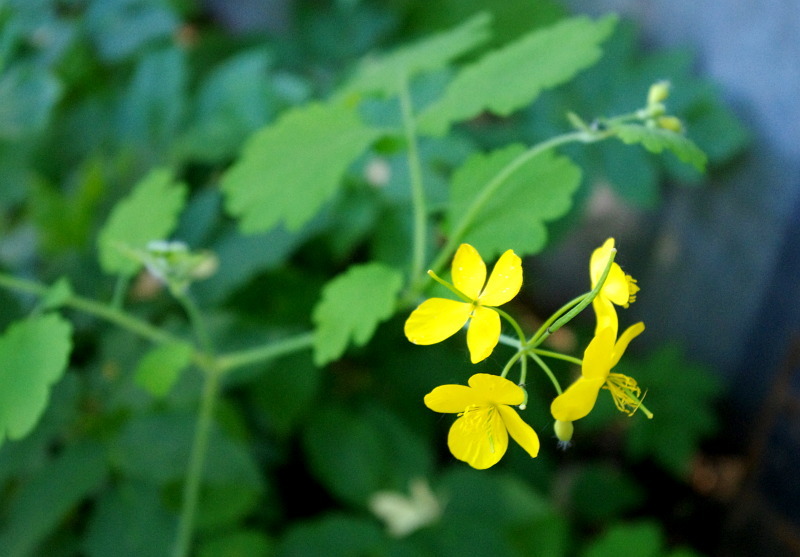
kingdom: Plantae
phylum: Tracheophyta
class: Magnoliopsida
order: Ranunculales
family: Papaveraceae
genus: Chelidonium
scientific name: Chelidonium majus
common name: Greater celandine
